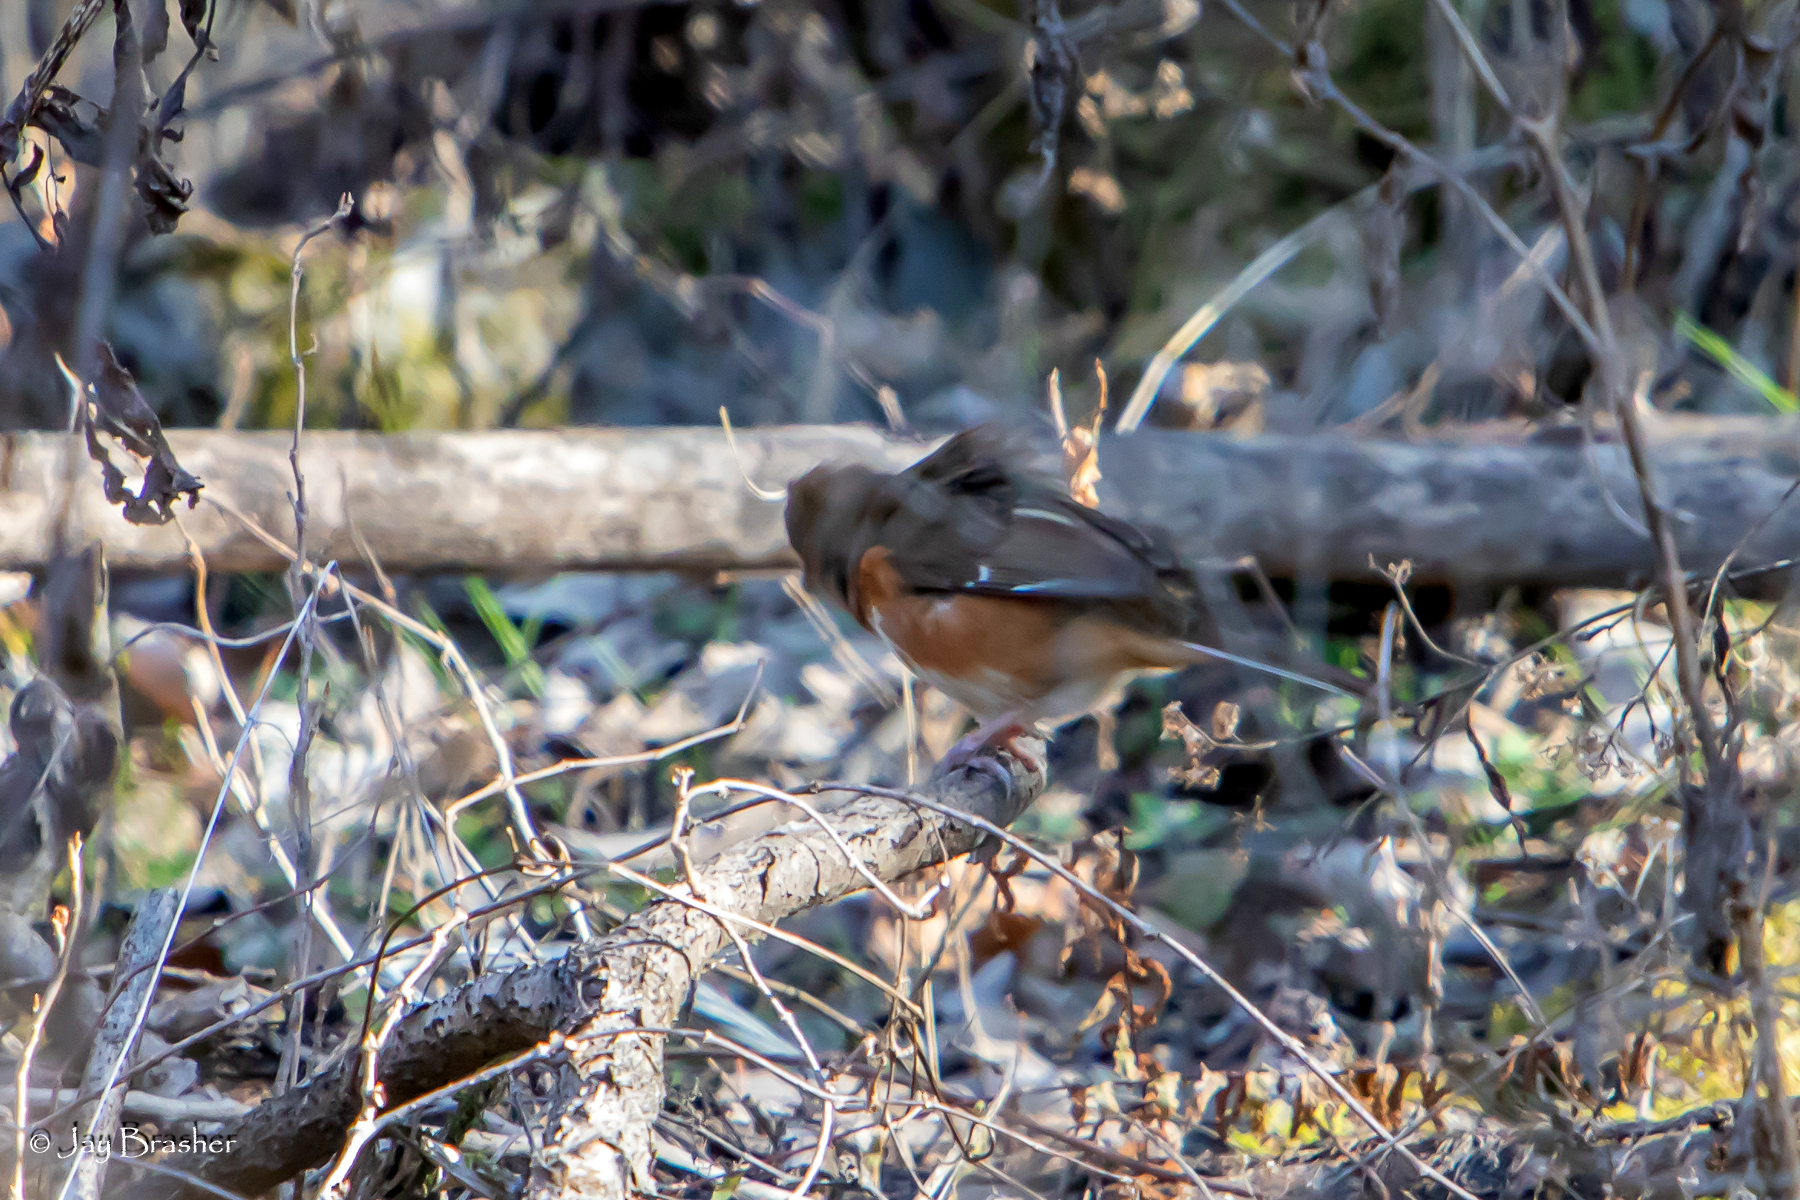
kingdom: Animalia
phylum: Chordata
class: Aves
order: Passeriformes
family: Passerellidae
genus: Pipilo
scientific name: Pipilo erythrophthalmus
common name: Eastern towhee
